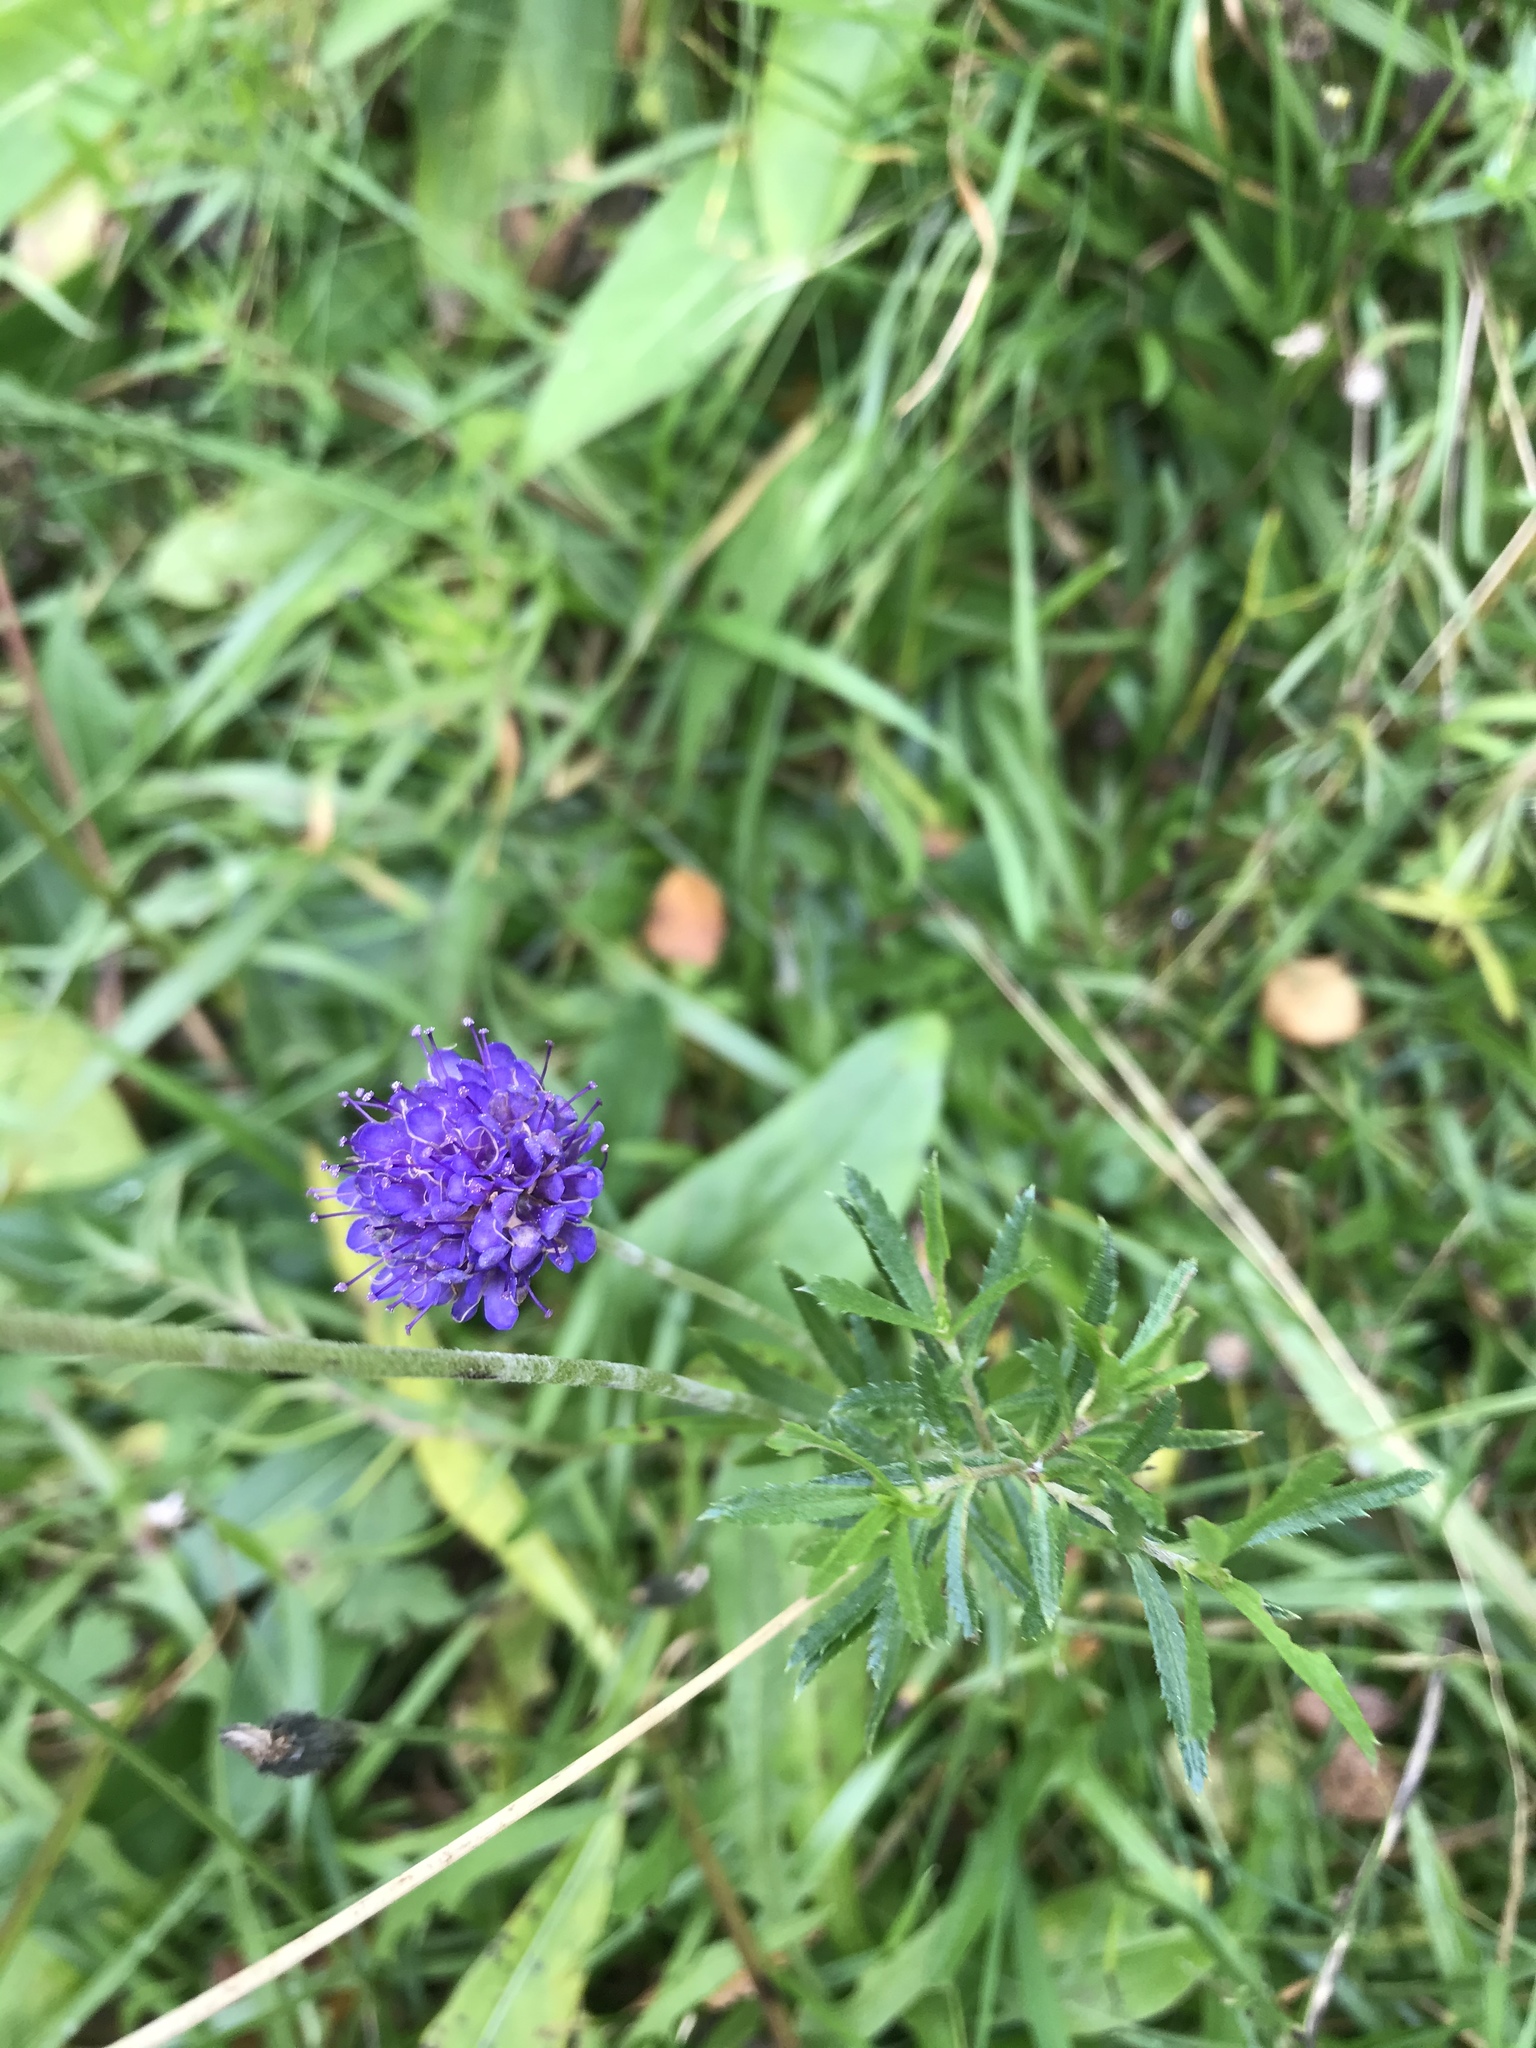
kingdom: Plantae
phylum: Tracheophyta
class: Magnoliopsida
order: Dipsacales
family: Caprifoliaceae
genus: Succisa
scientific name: Succisa pratensis
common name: Devil's-bit
